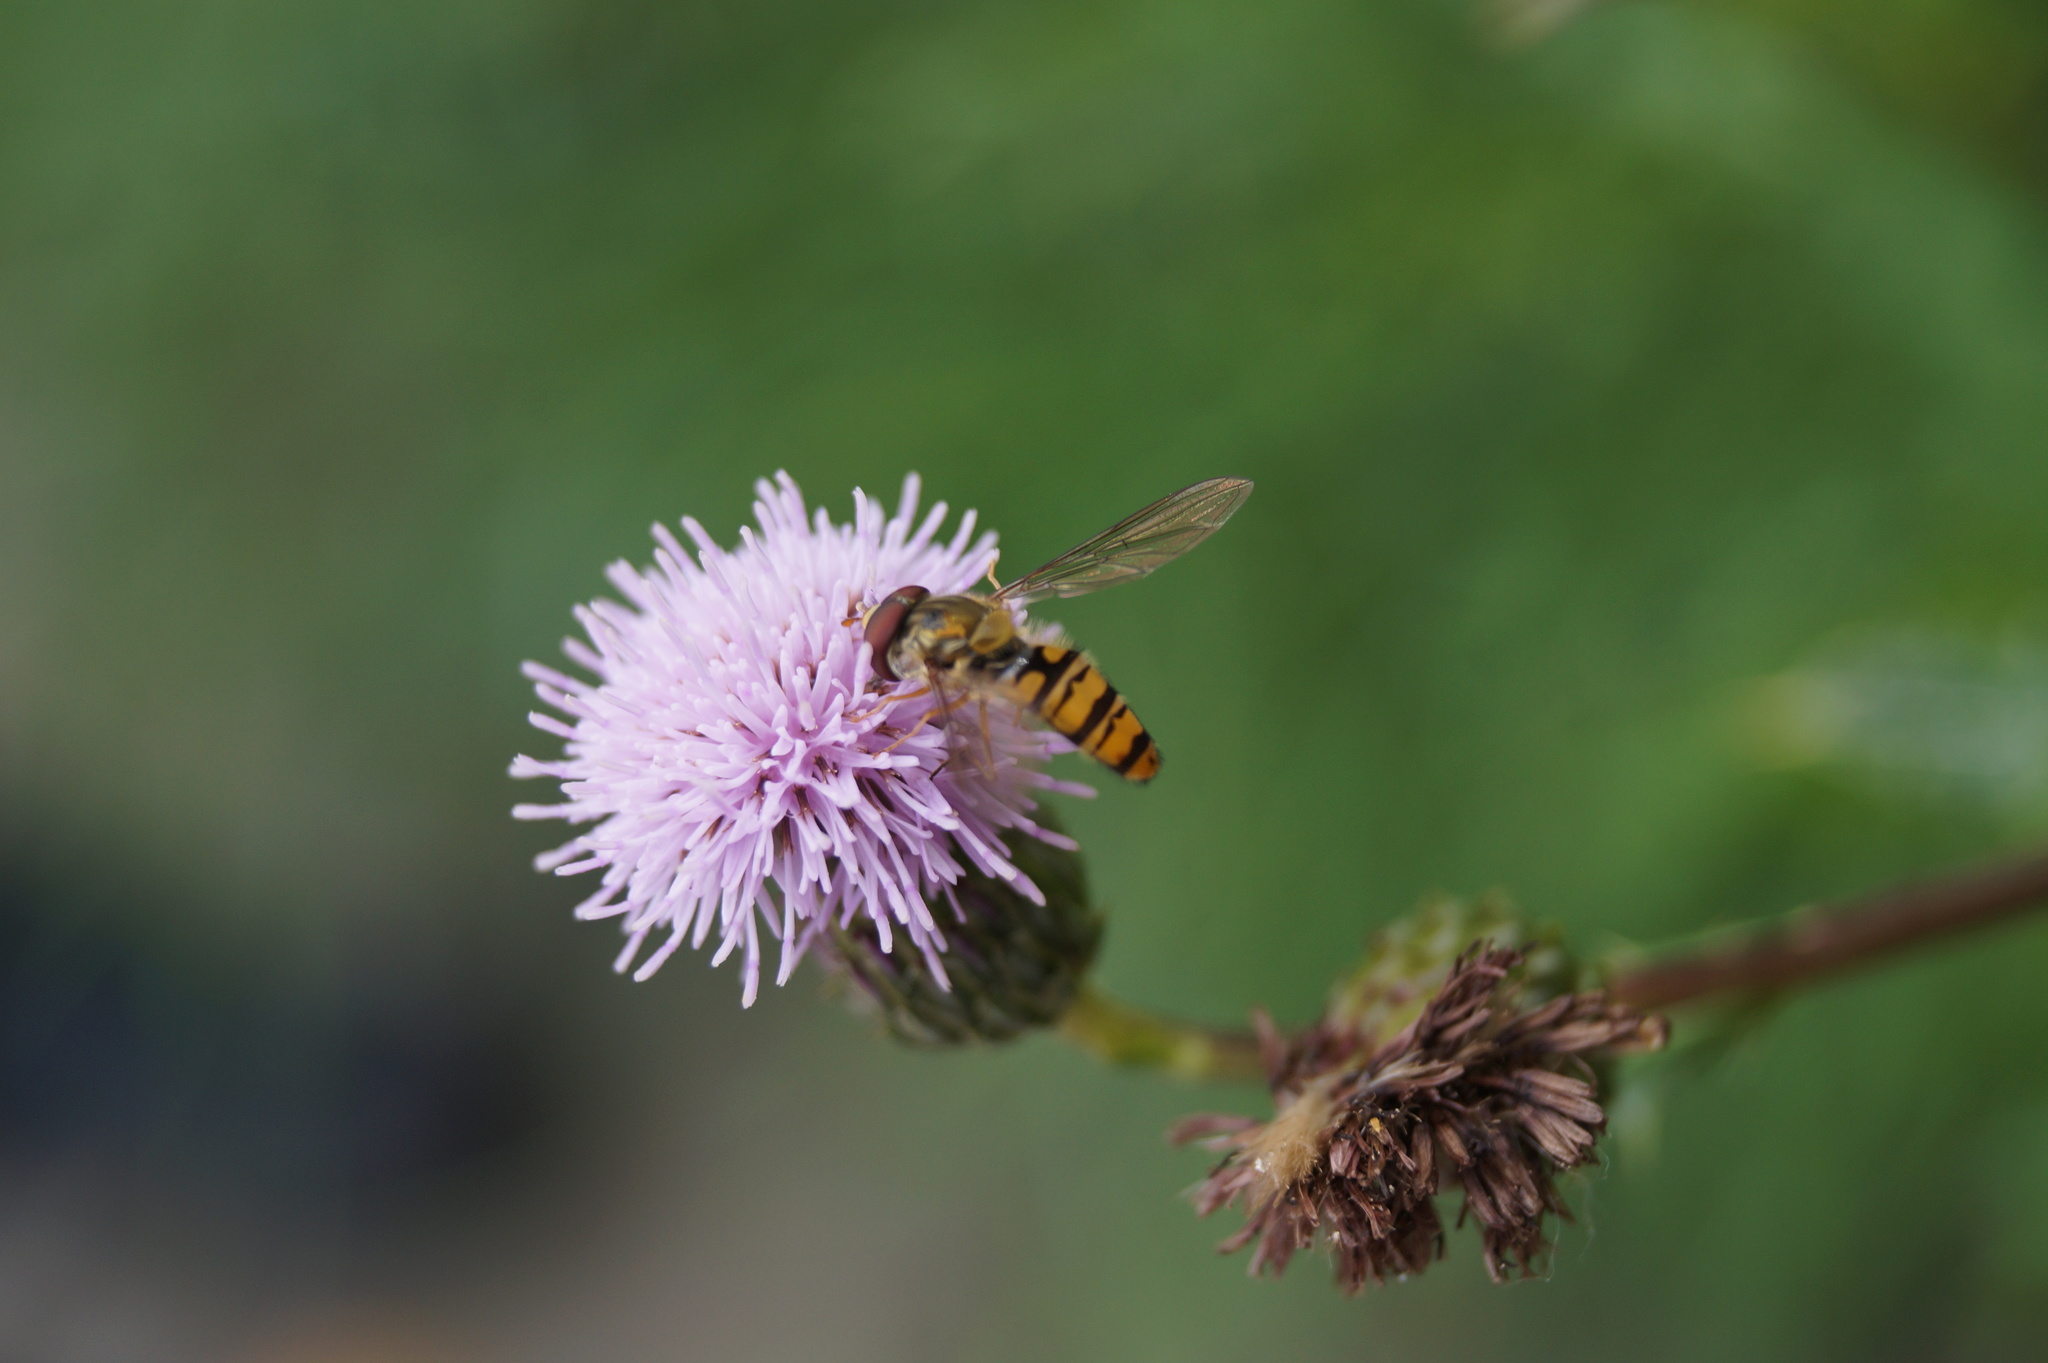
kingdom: Animalia
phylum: Arthropoda
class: Insecta
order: Diptera
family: Syrphidae
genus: Episyrphus
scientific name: Episyrphus balteatus
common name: Marmalade hoverfly
